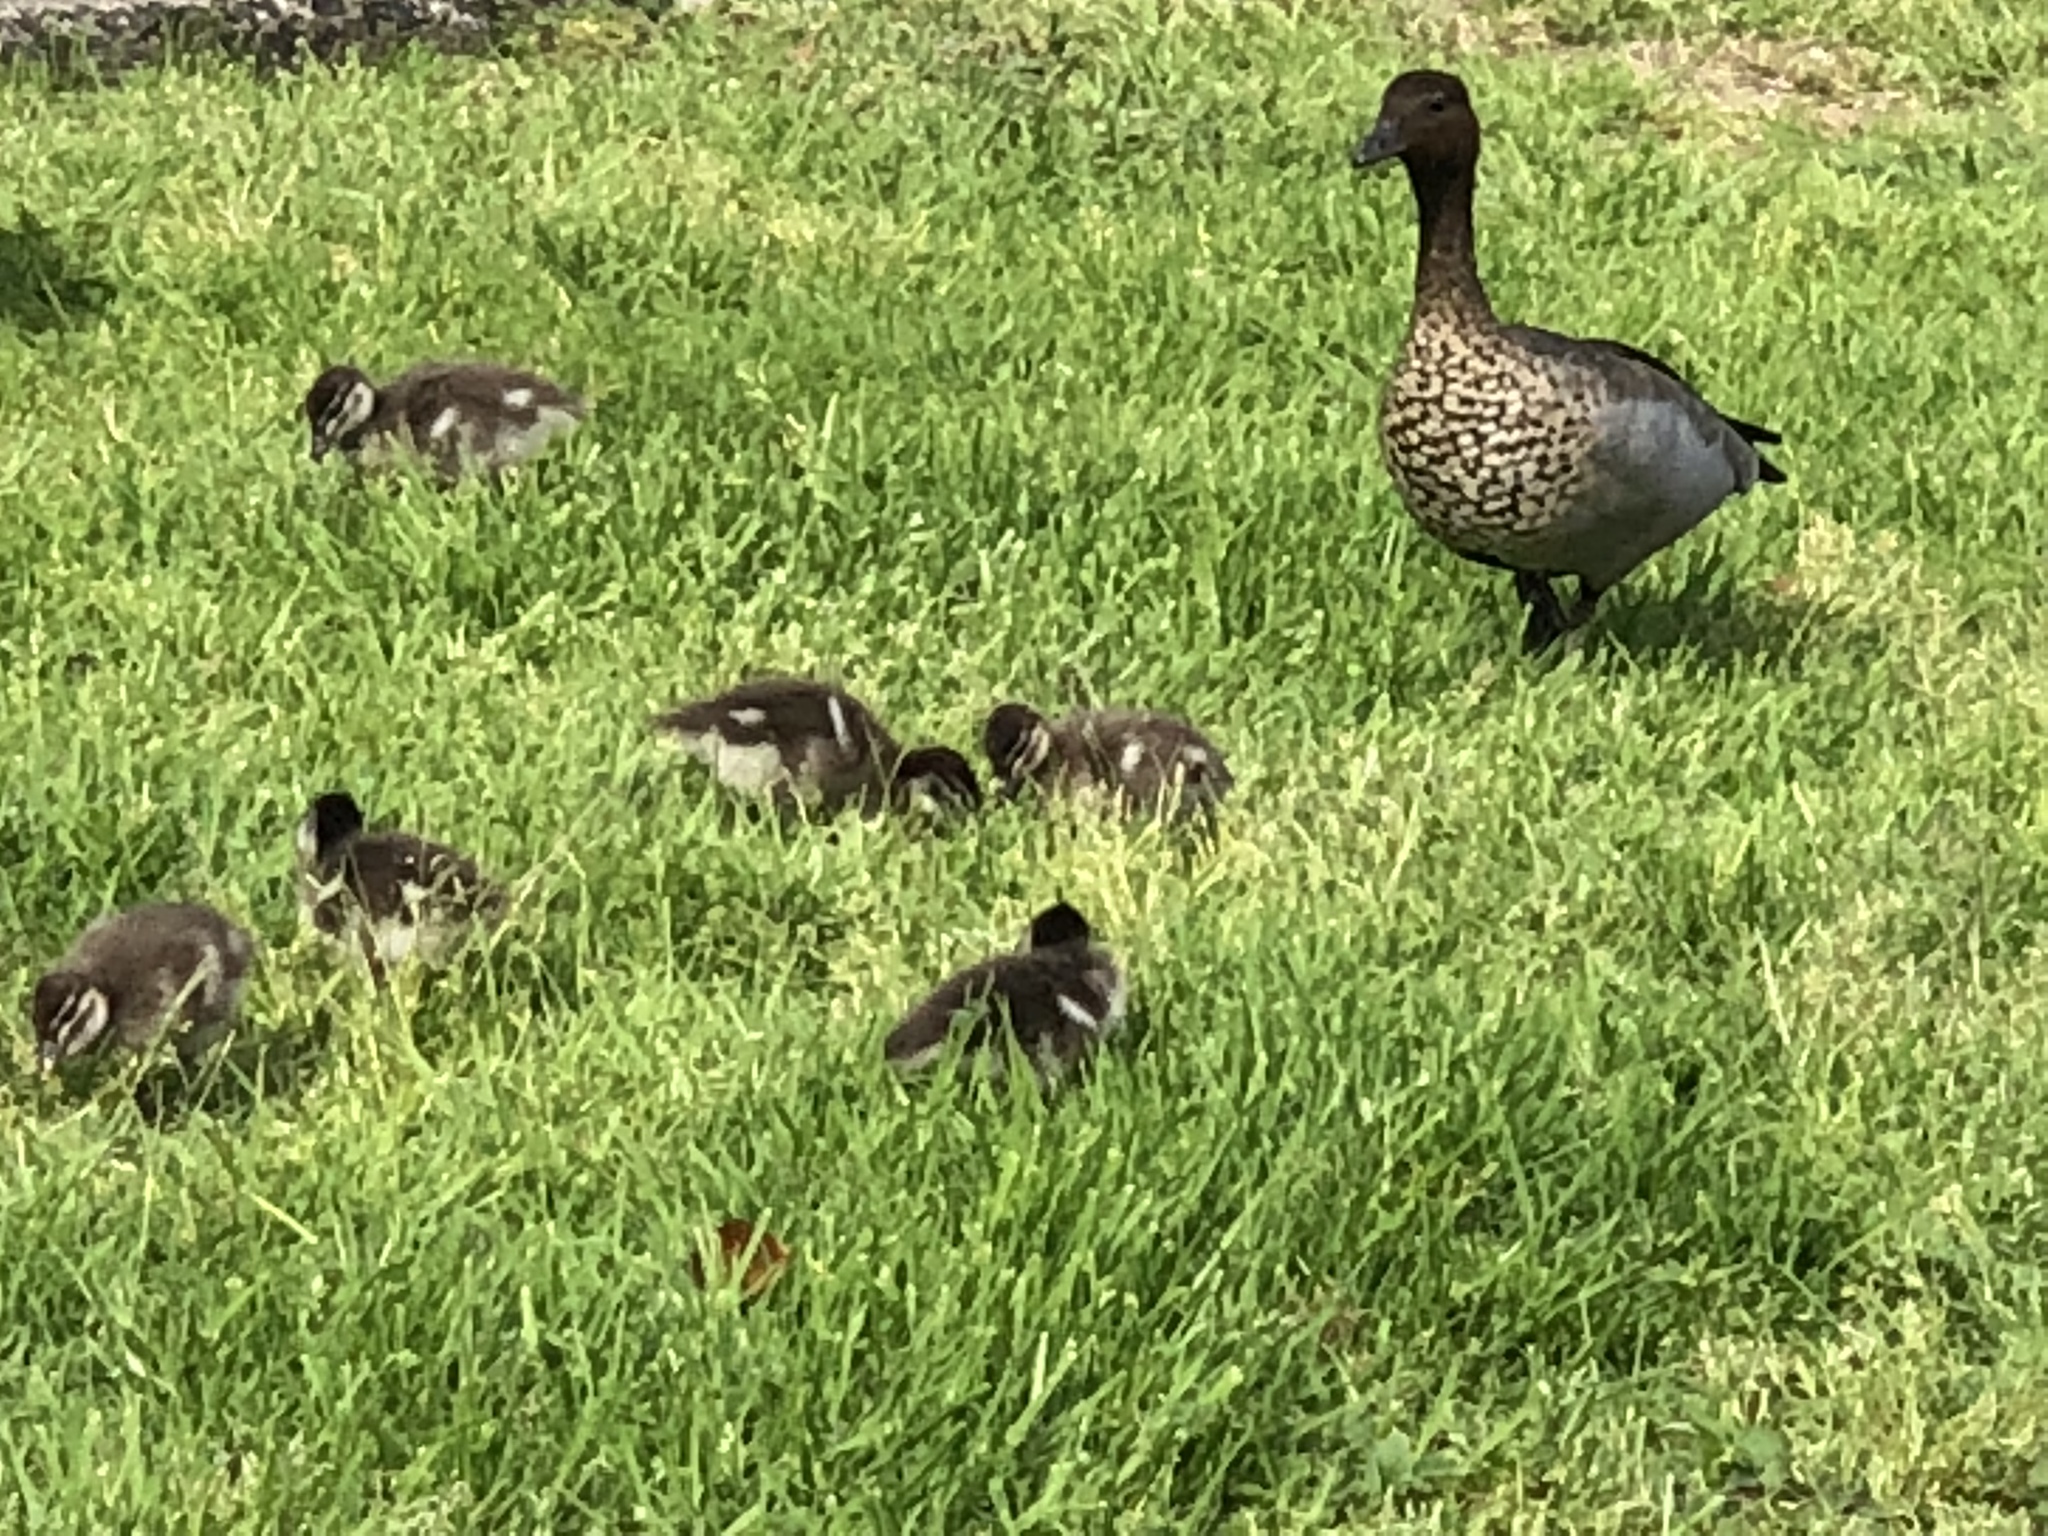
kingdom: Animalia
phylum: Chordata
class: Aves
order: Anseriformes
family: Anatidae
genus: Chenonetta
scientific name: Chenonetta jubata
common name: Maned duck
